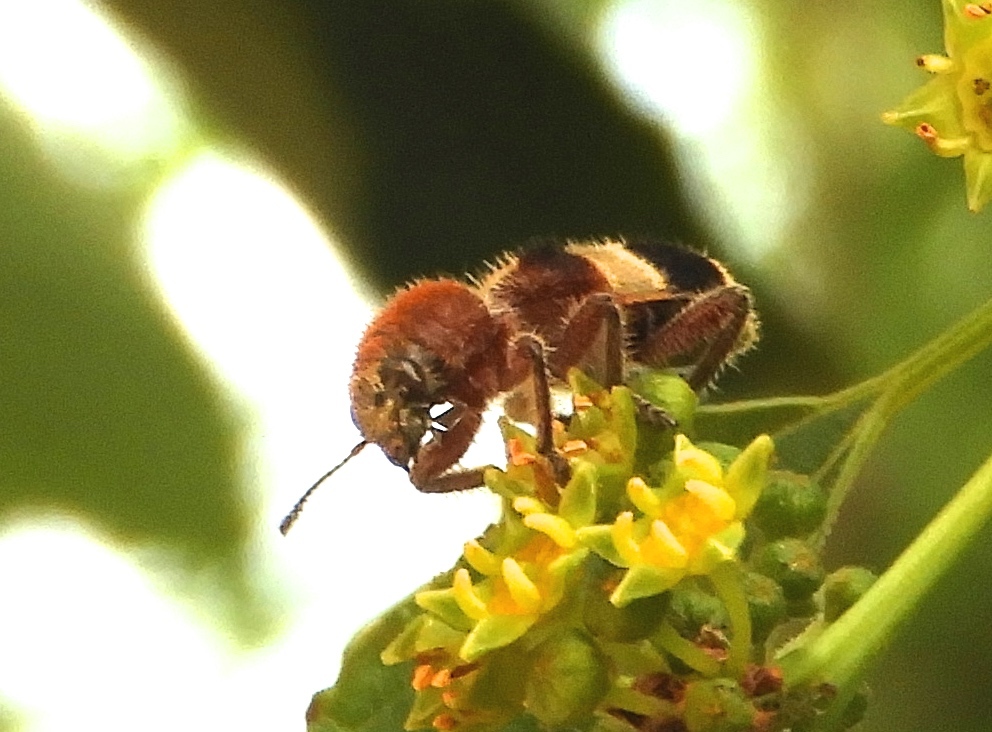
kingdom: Animalia
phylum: Arthropoda
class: Insecta
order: Coleoptera
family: Cleridae
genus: Enoclerus
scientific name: Enoclerus quadriguttatus
